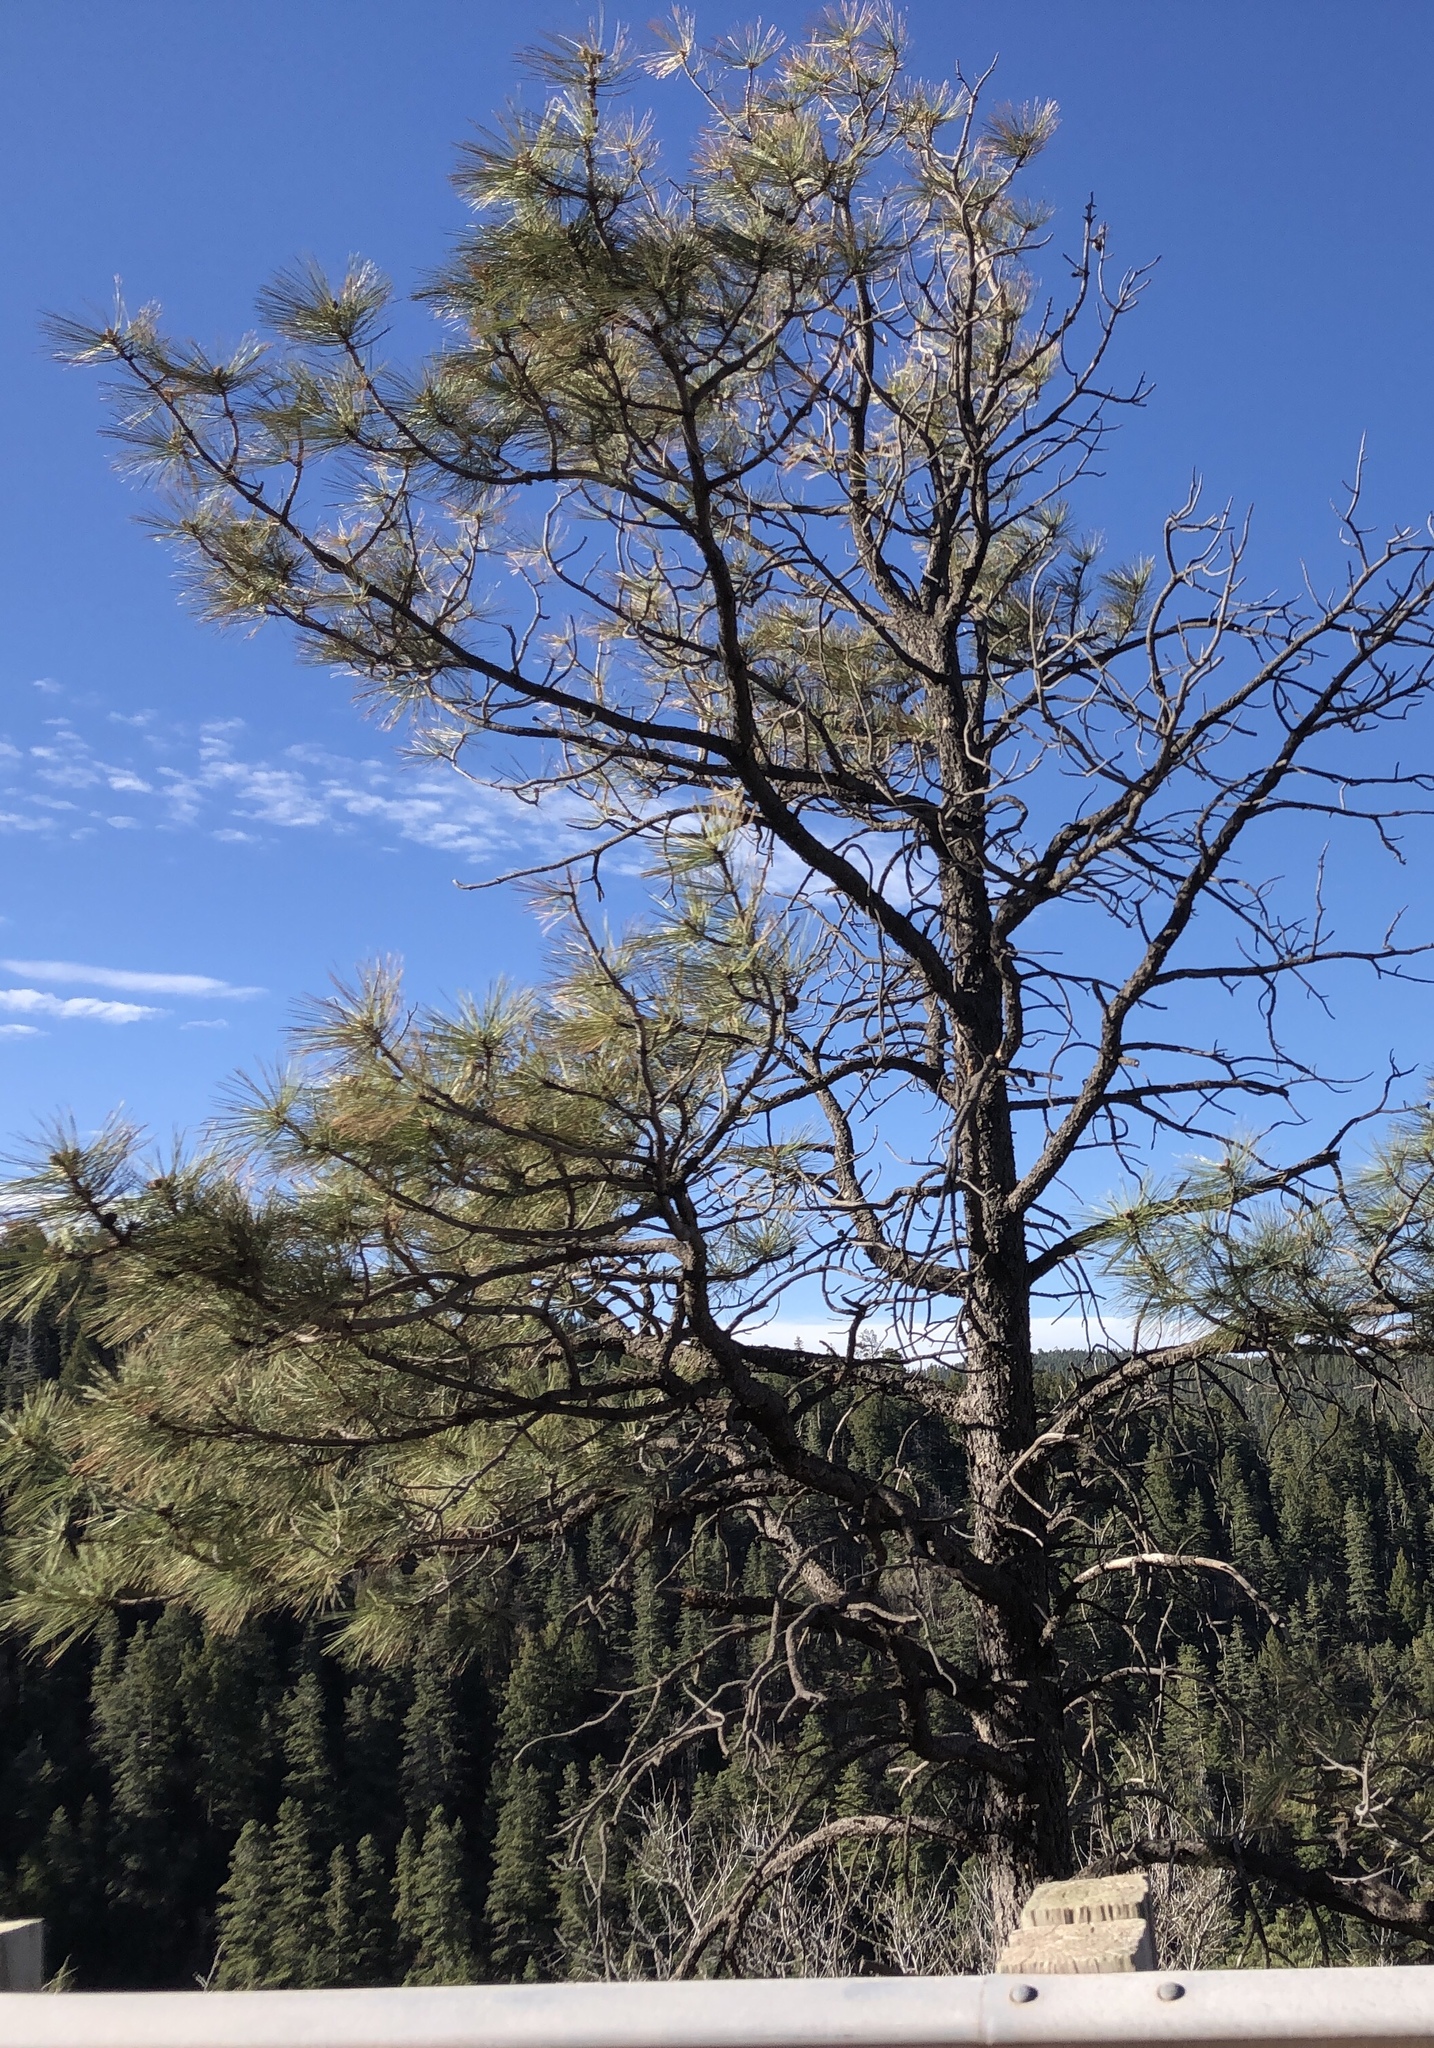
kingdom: Plantae
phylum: Tracheophyta
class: Pinopsida
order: Pinales
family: Pinaceae
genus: Pinus
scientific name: Pinus ponderosa
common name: Western yellow-pine
